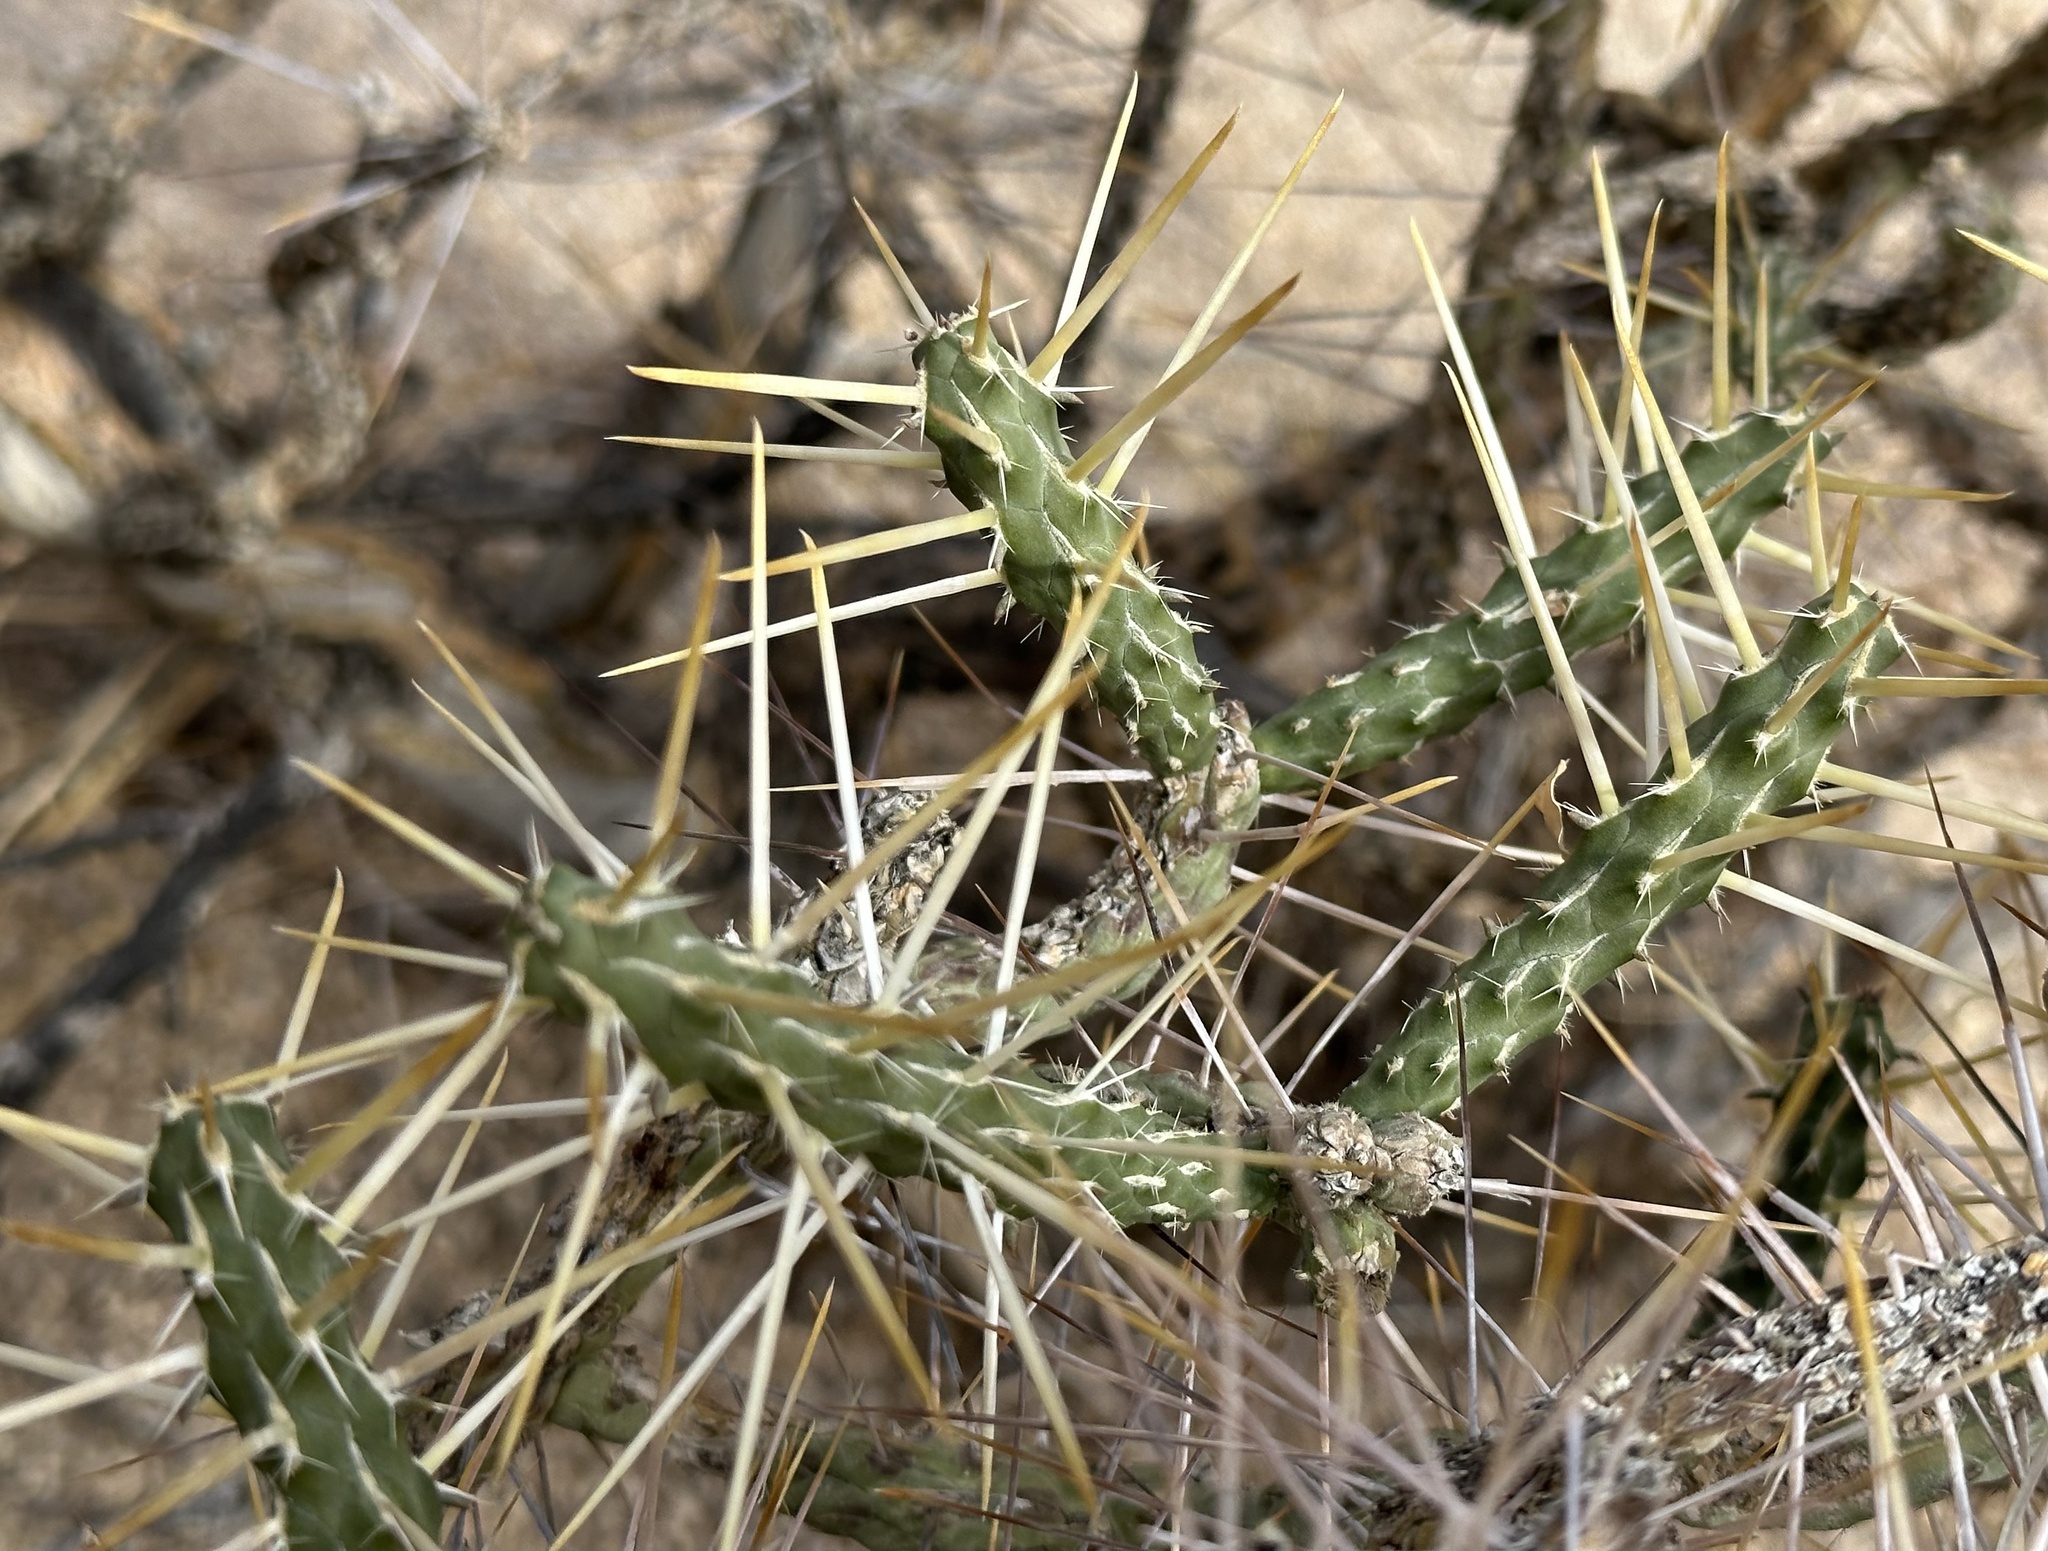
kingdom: Plantae
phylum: Tracheophyta
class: Magnoliopsida
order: Caryophyllales
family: Cactaceae
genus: Cylindropuntia
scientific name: Cylindropuntia ramosissima
